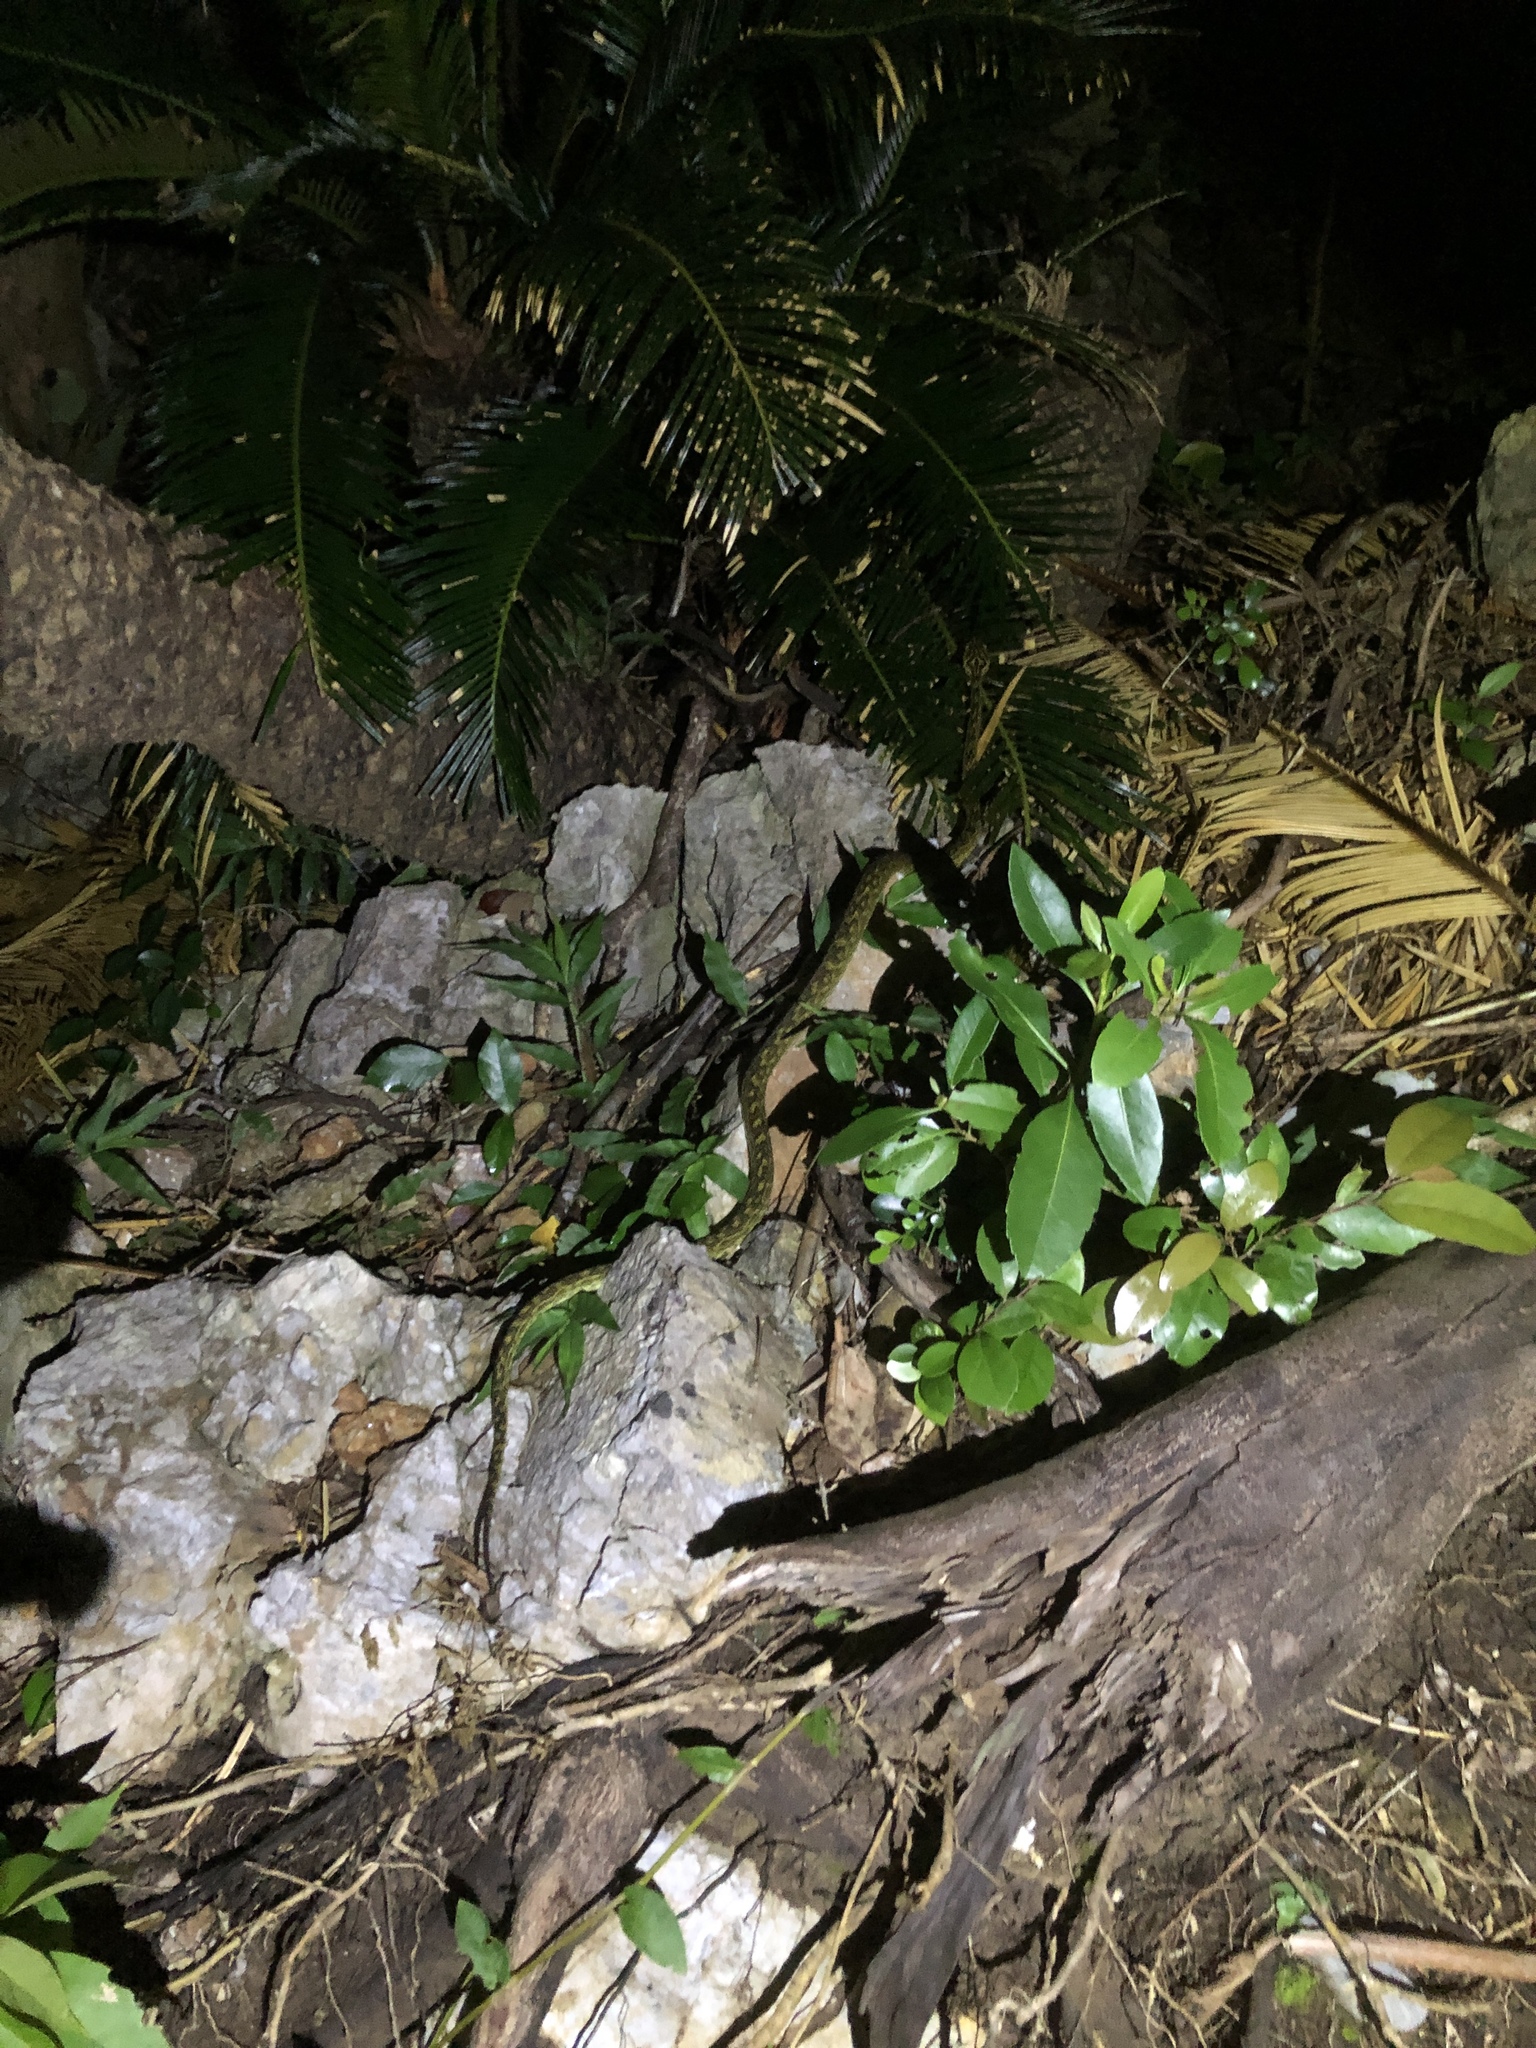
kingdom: Animalia
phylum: Chordata
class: Squamata
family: Viperidae
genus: Protobothrops
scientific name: Protobothrops flavoviridis
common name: Habu
